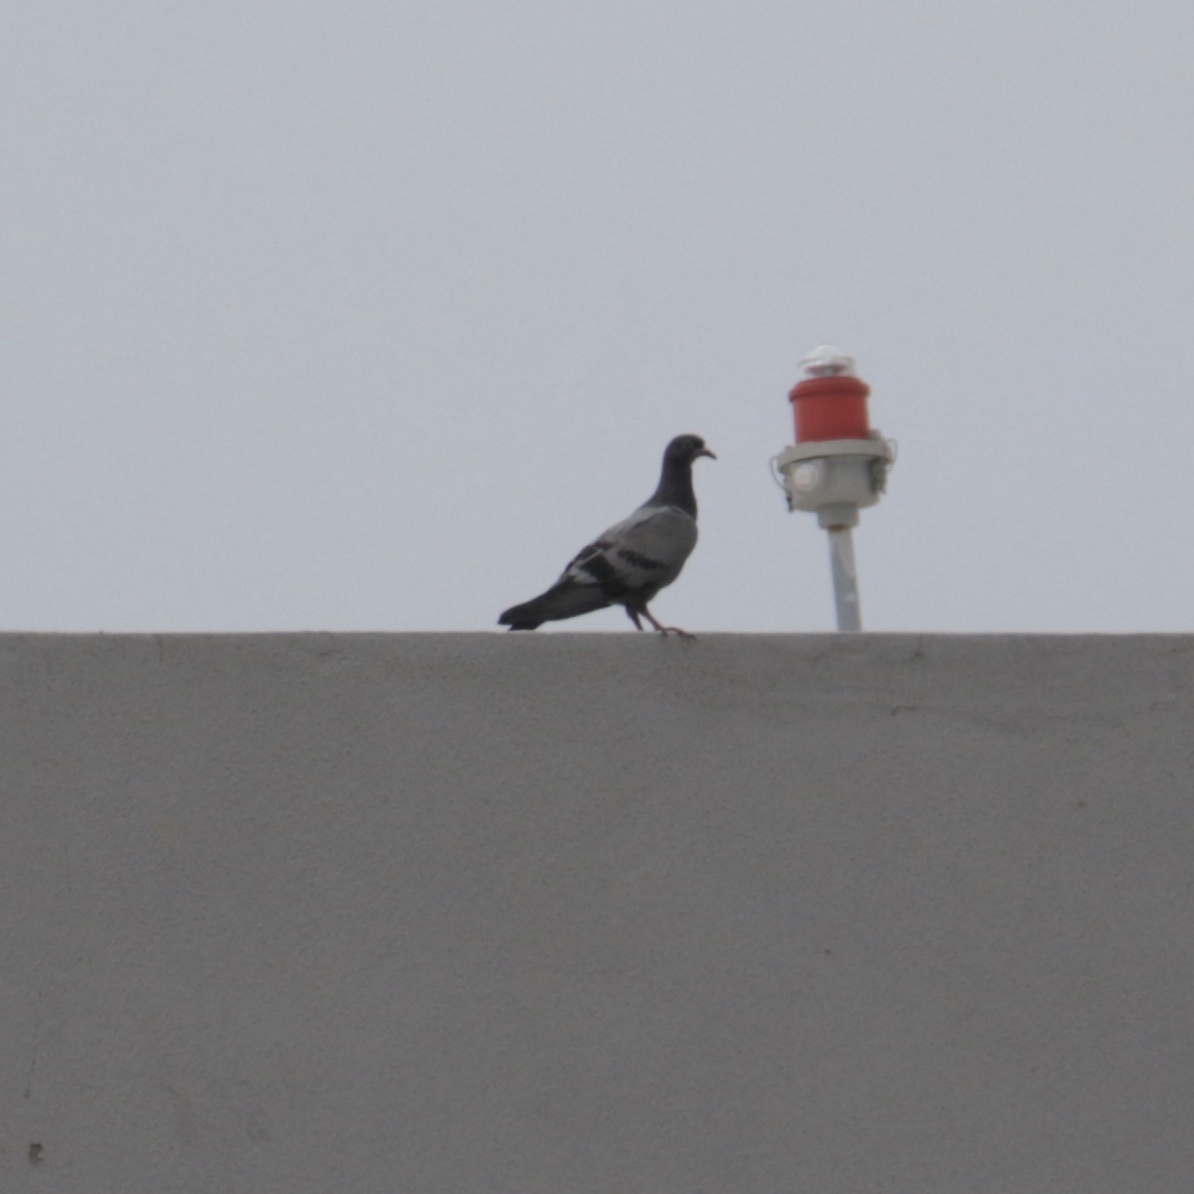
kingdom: Animalia
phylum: Chordata
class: Aves
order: Columbiformes
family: Columbidae
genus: Columba
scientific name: Columba livia
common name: Rock pigeon
